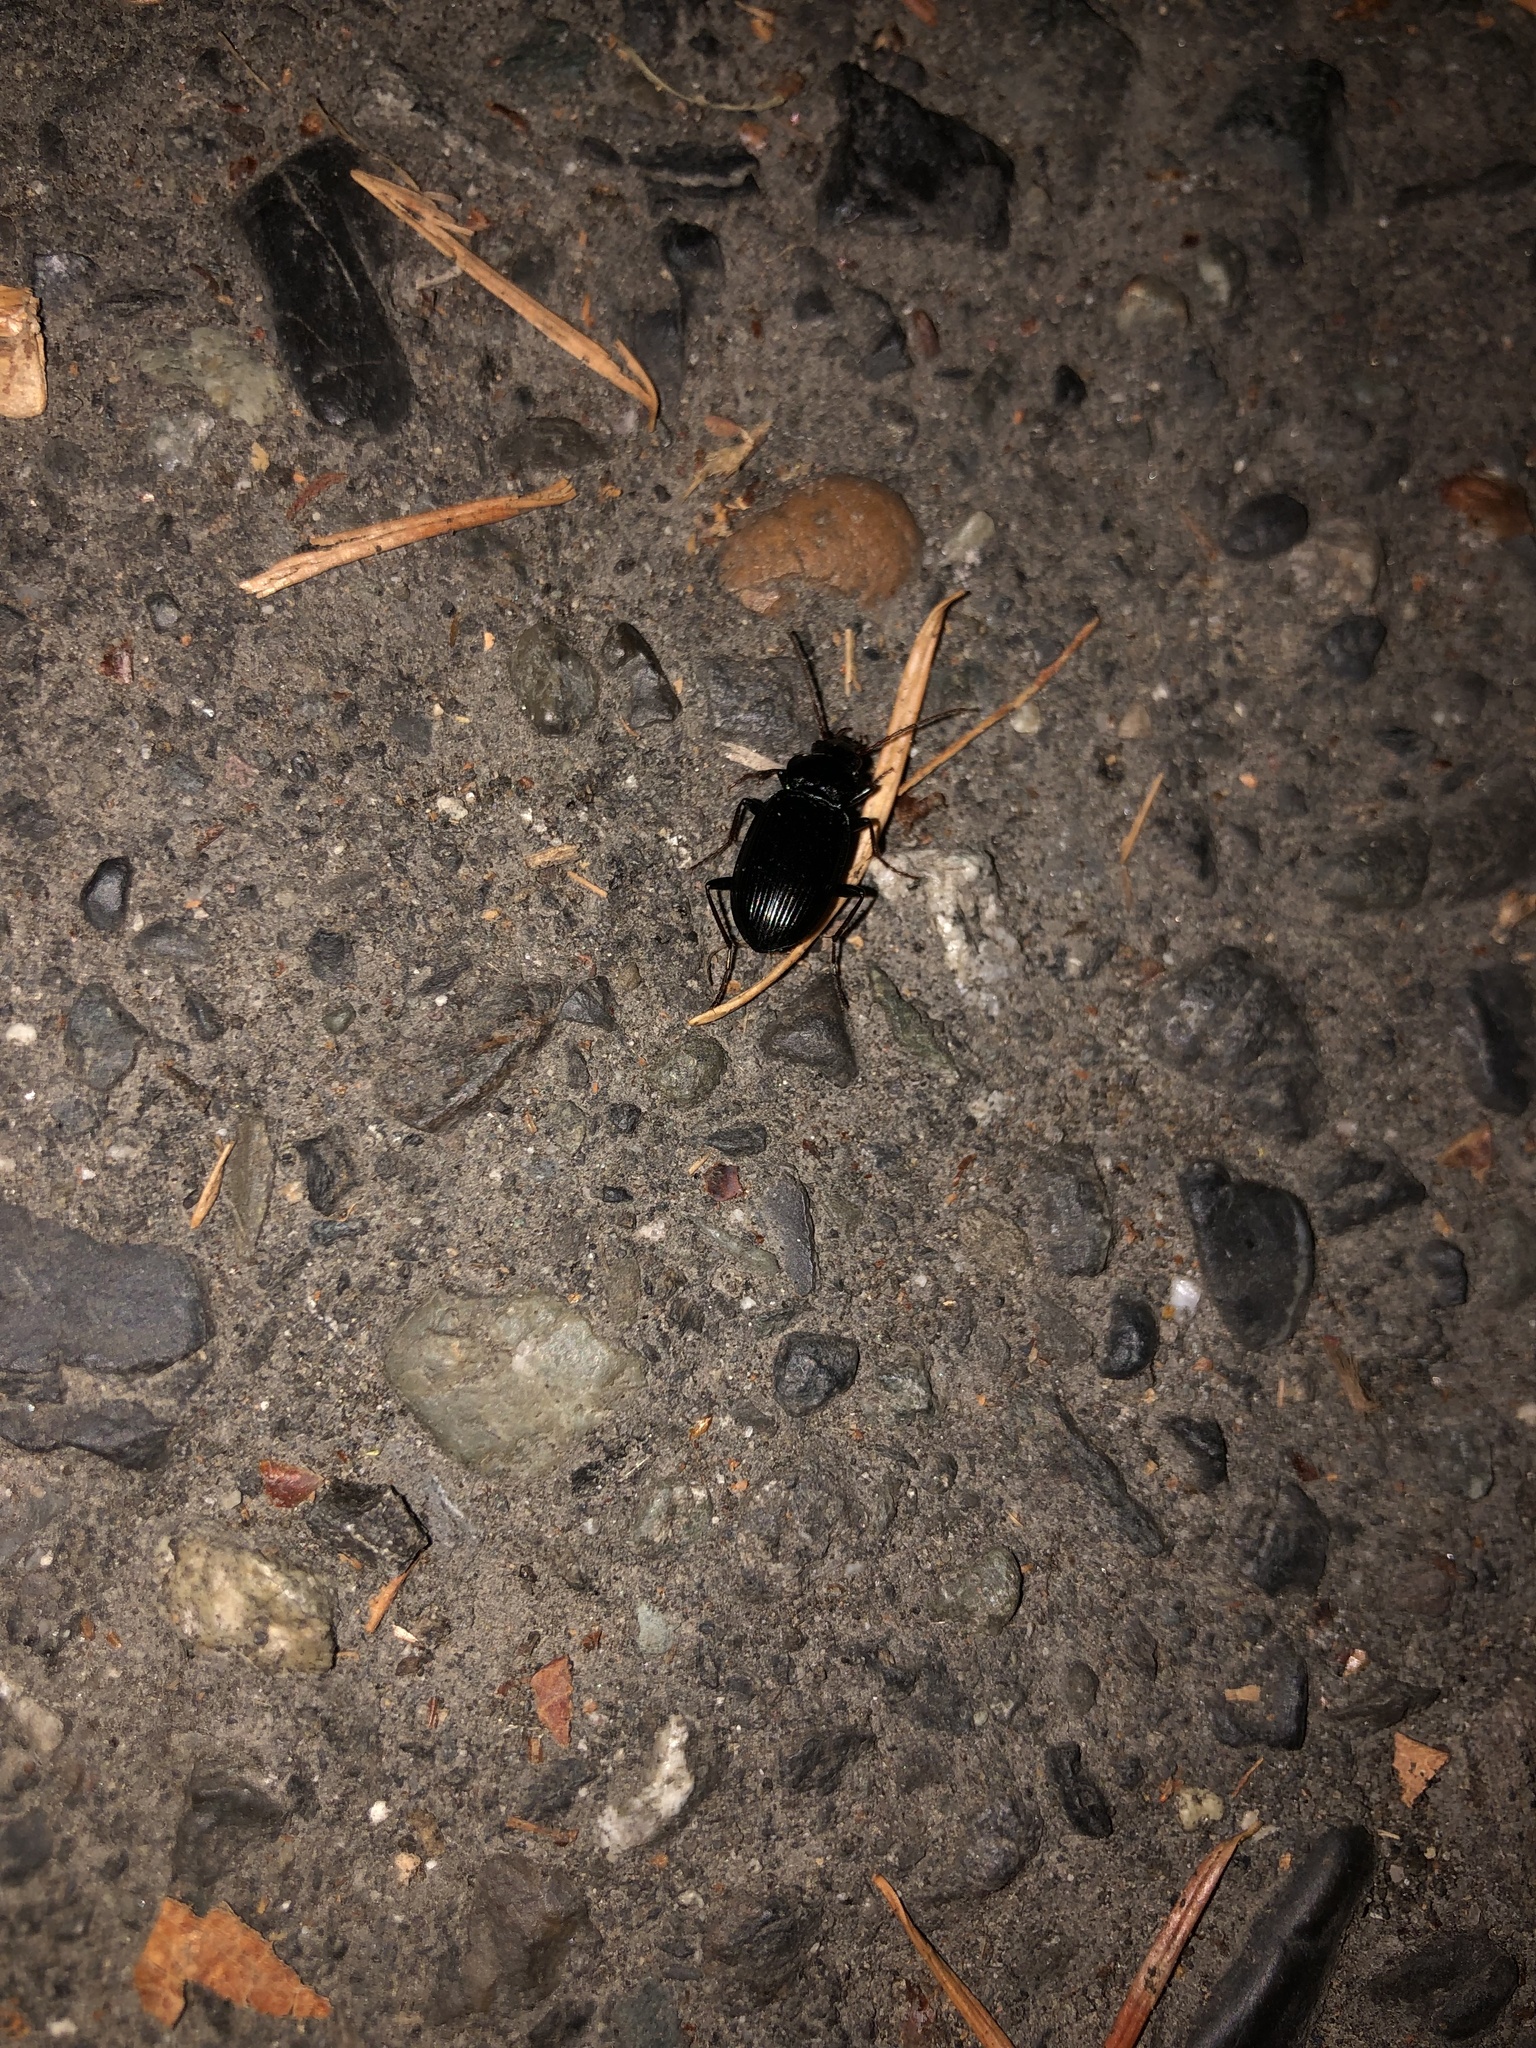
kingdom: Animalia
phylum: Arthropoda
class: Insecta
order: Coleoptera
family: Carabidae
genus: Nebria
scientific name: Nebria brevicollis
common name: Short-necked gazelle beetle
